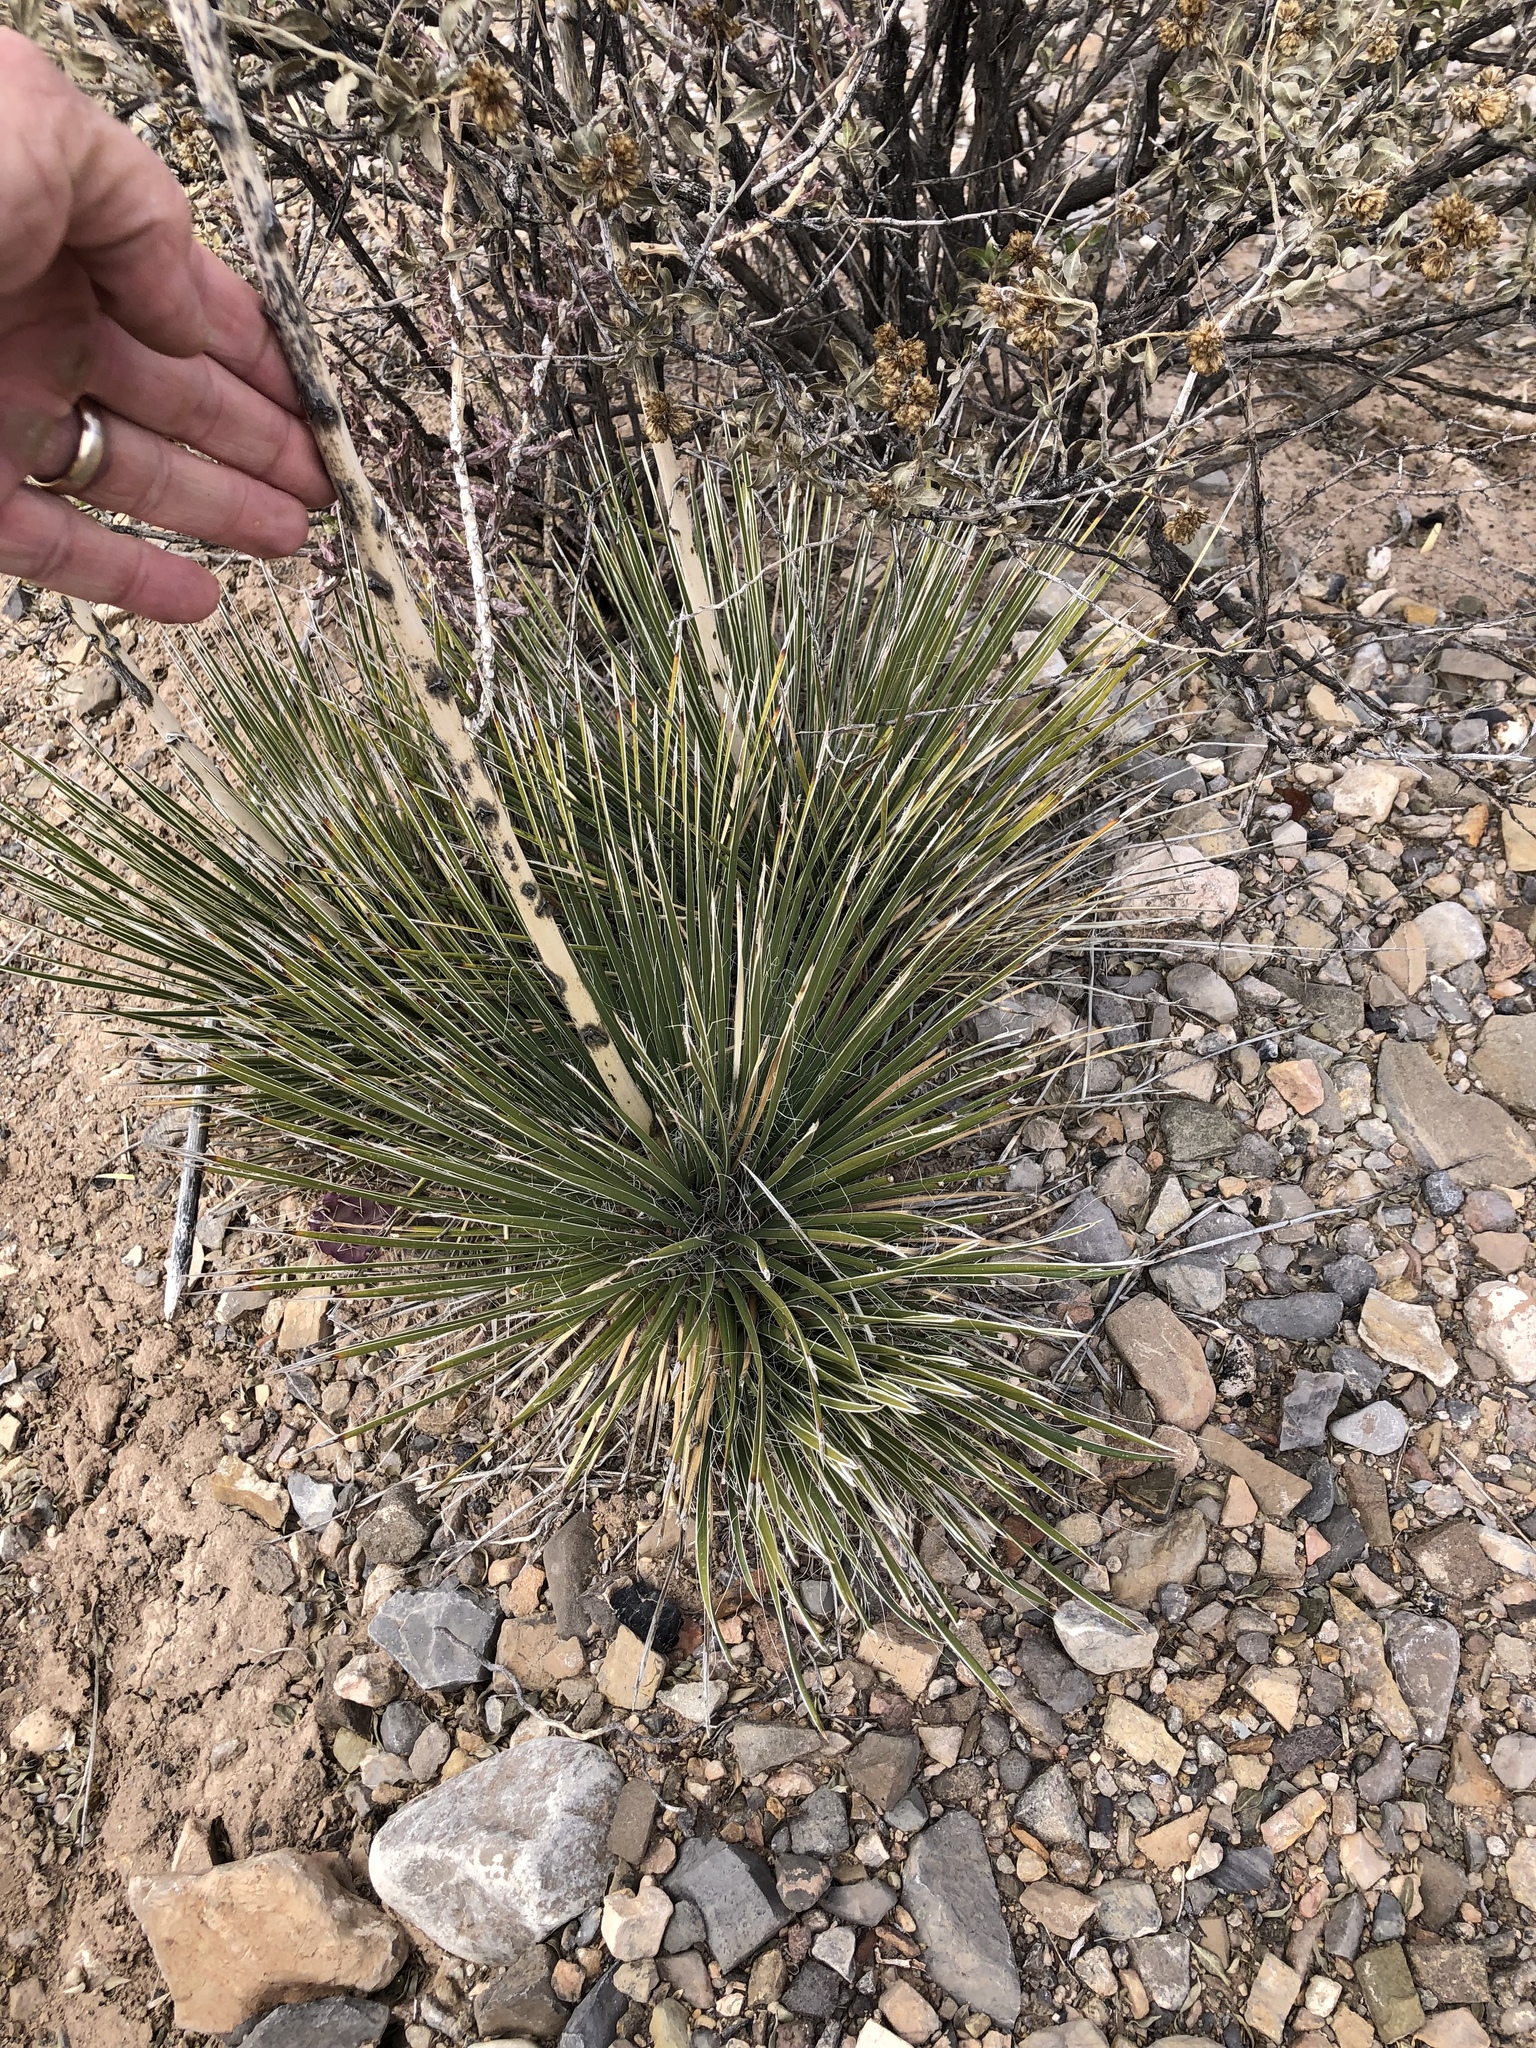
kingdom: Plantae
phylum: Tracheophyta
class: Liliopsida
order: Asparagales
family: Asparagaceae
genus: Yucca
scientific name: Yucca elata
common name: Palmella
